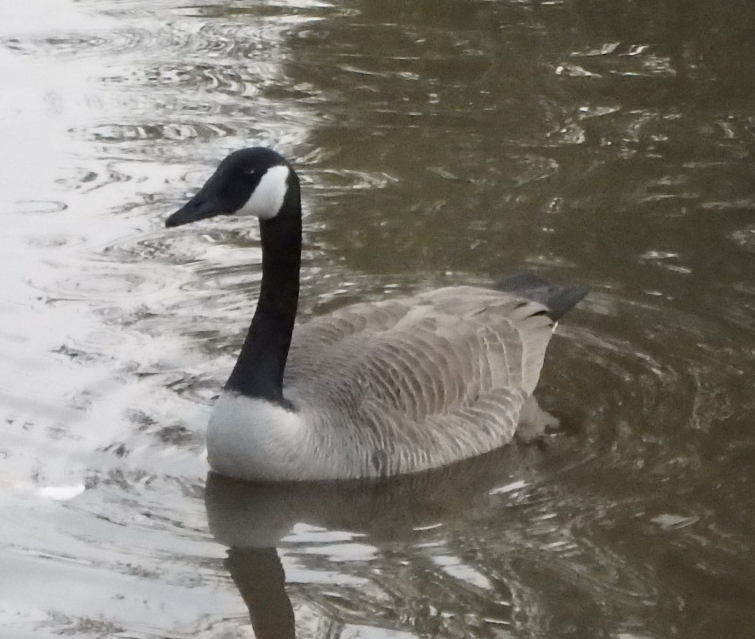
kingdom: Animalia
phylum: Chordata
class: Aves
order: Anseriformes
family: Anatidae
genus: Branta
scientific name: Branta canadensis
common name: Canada goose
